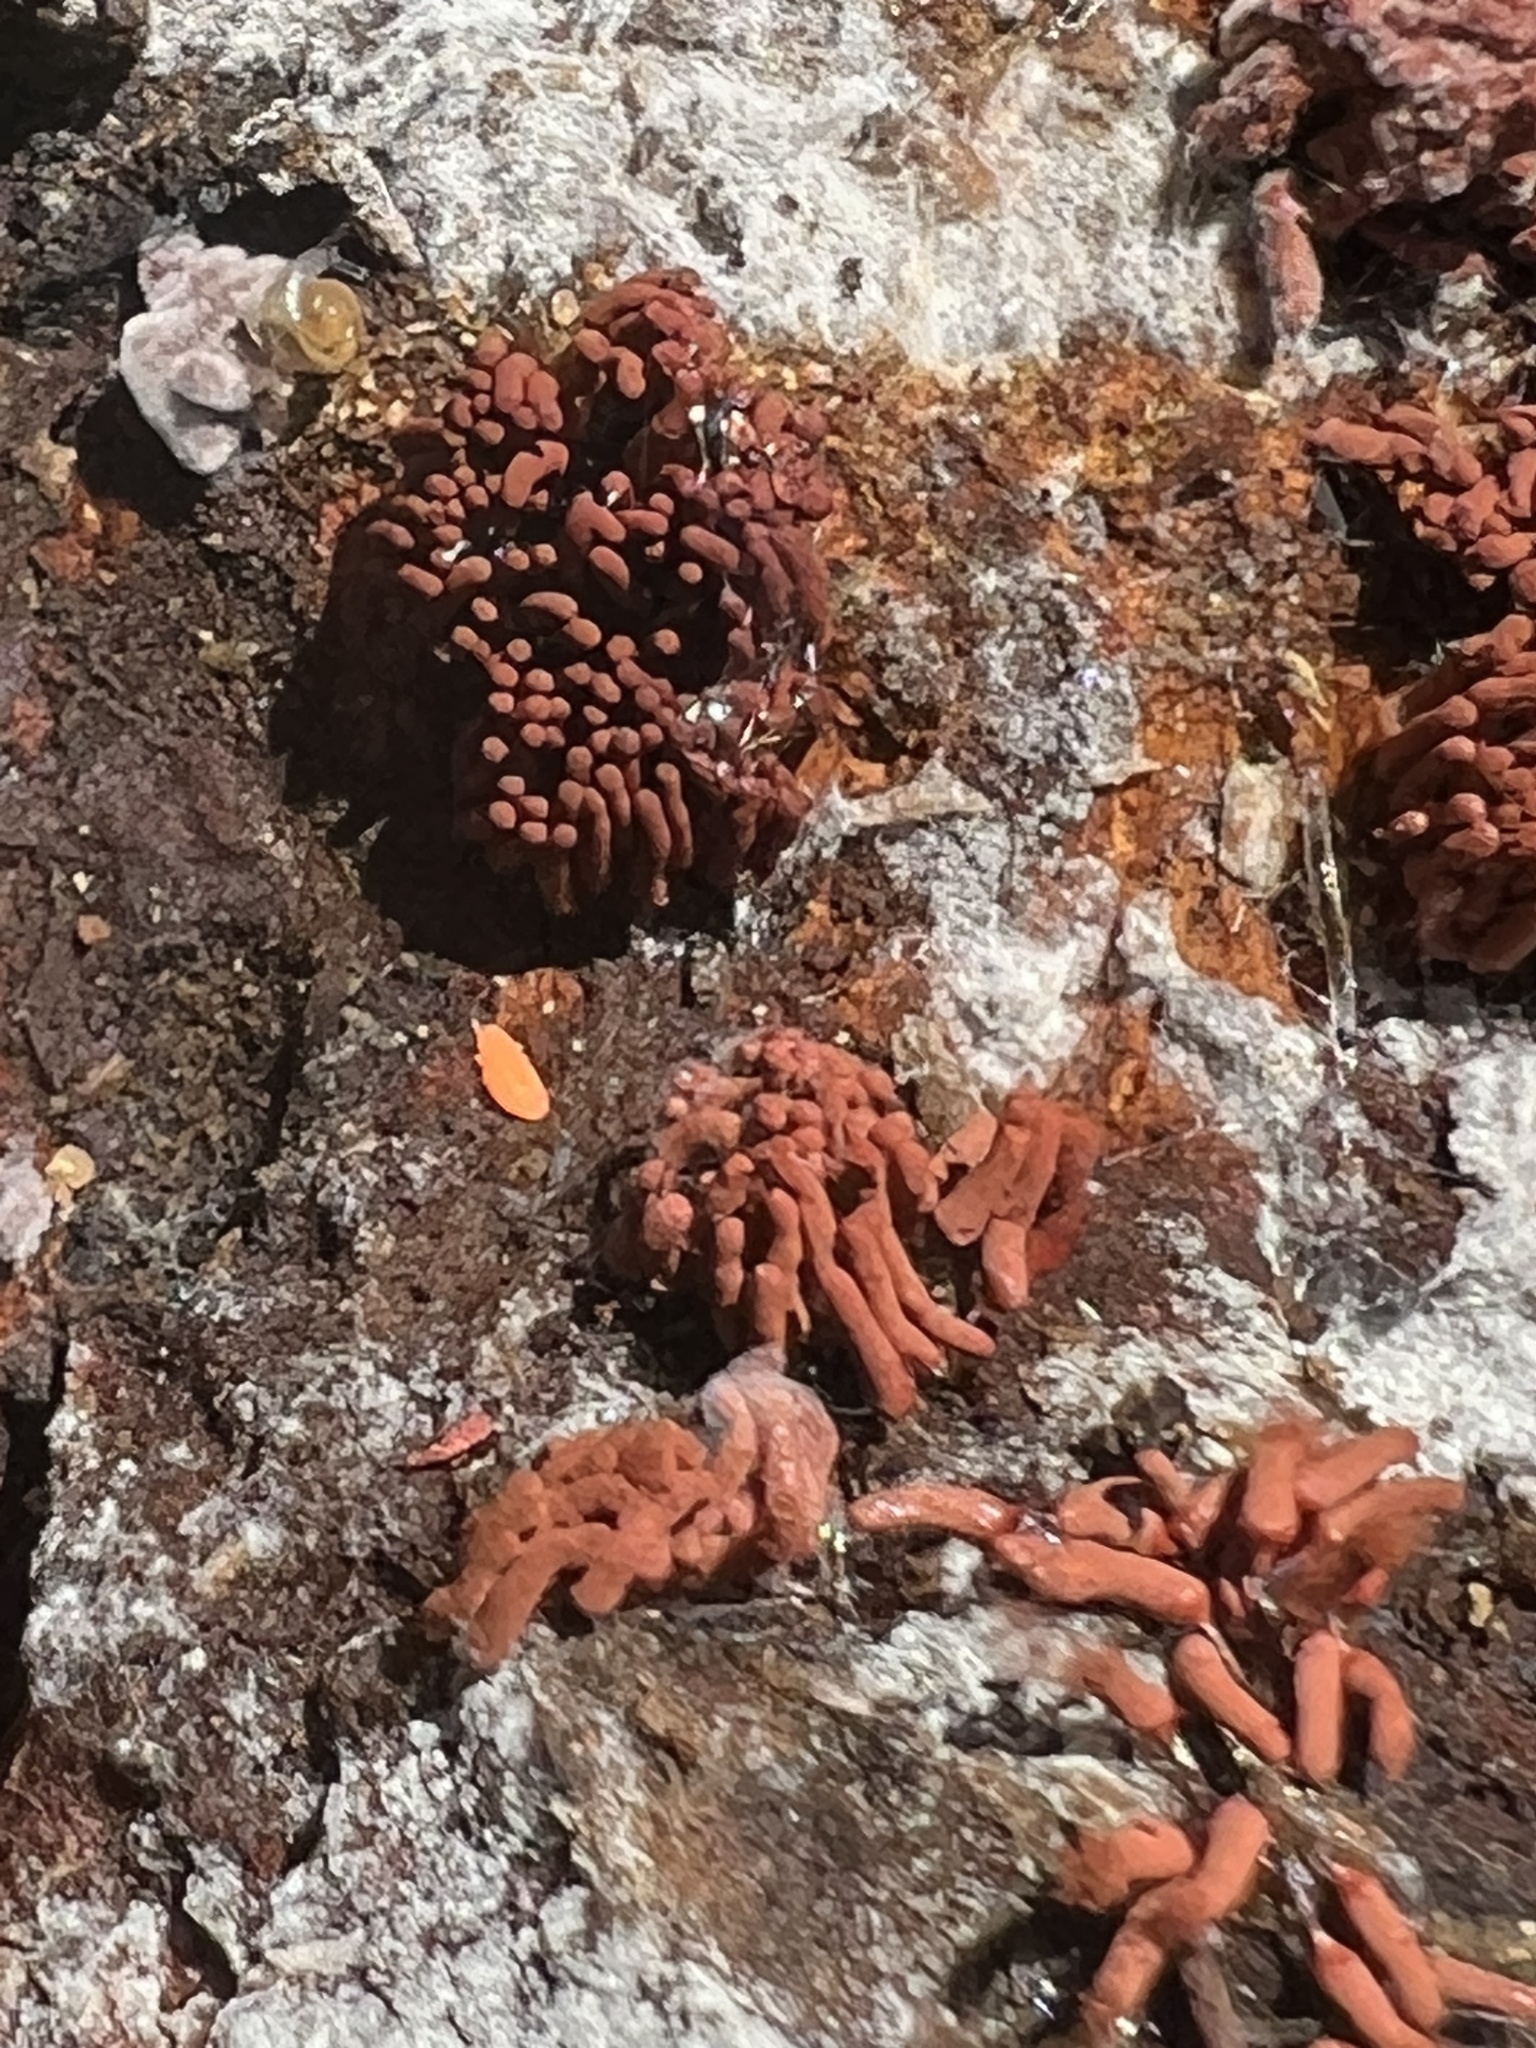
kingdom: Protozoa
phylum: Mycetozoa
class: Myxomycetes
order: Trichiales
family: Arcyriaceae
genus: Arcyria
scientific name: Arcyria denudata
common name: Carnival candy slime mold
